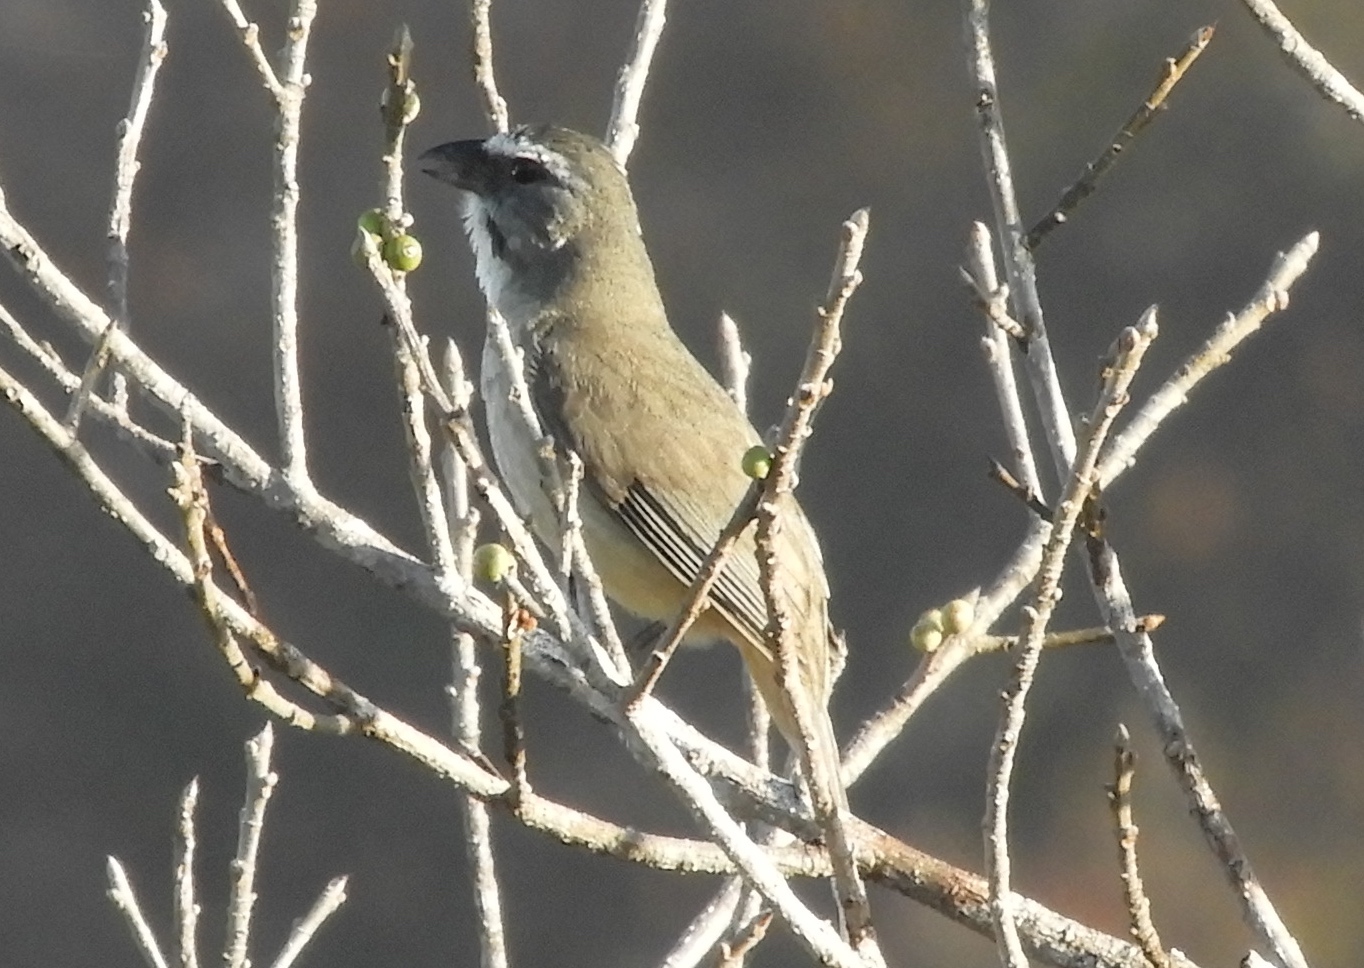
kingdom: Animalia
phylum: Chordata
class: Aves
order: Passeriformes
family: Thraupidae
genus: Saltator
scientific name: Saltator grandis
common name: Cinnamon-bellied saltator
